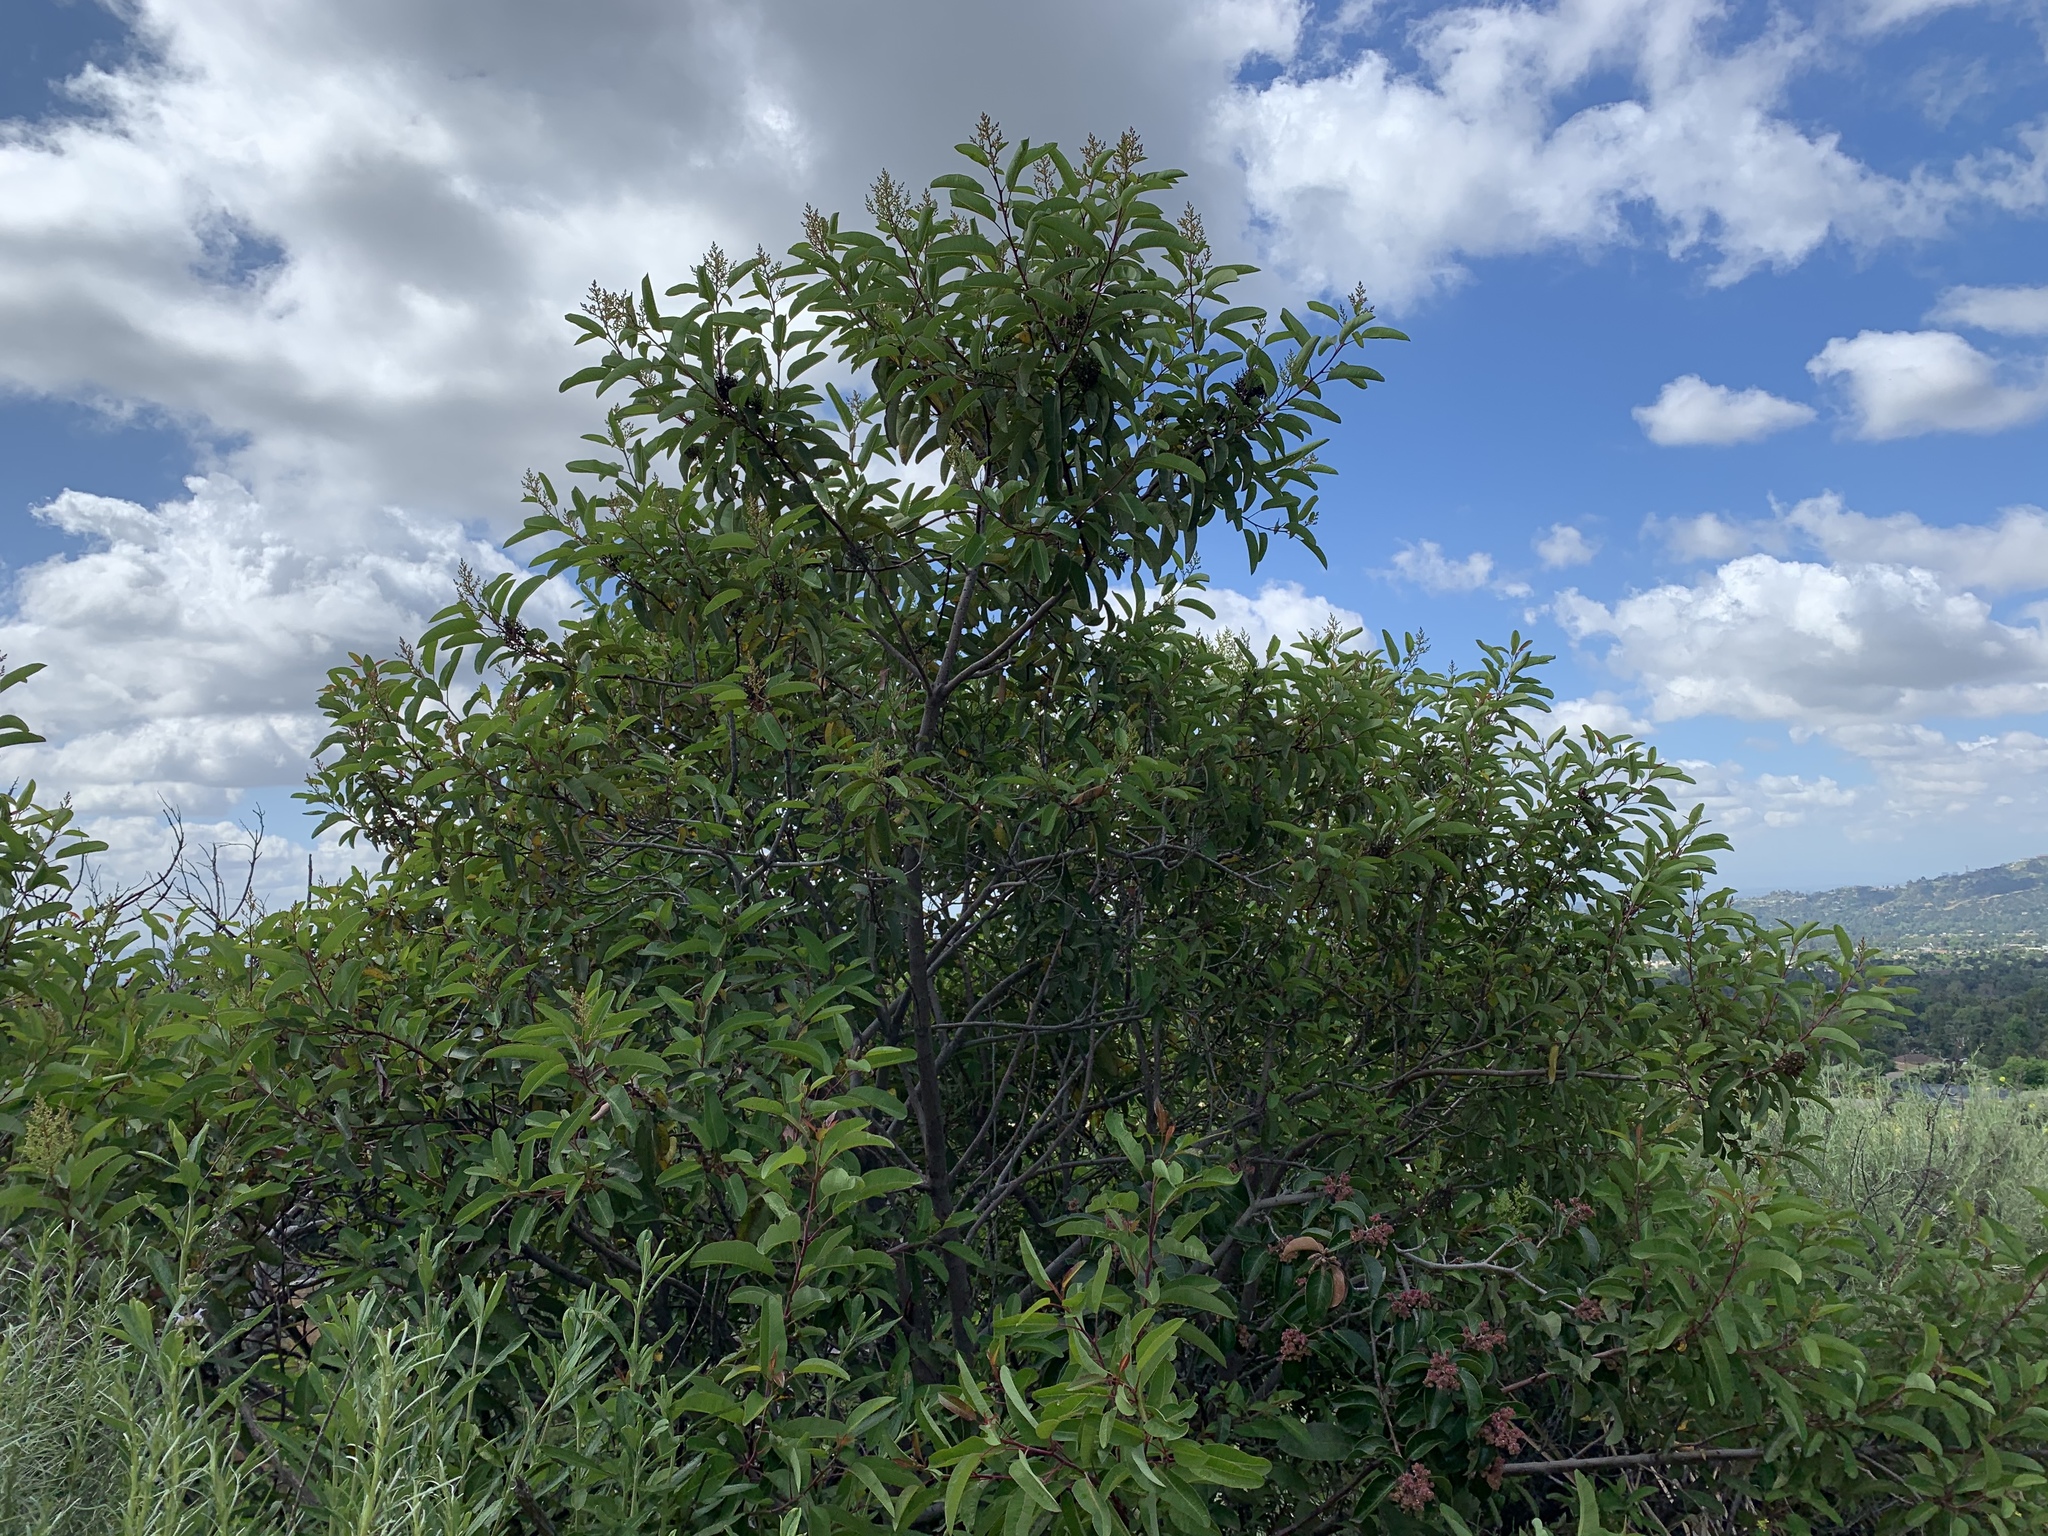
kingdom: Plantae
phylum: Tracheophyta
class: Magnoliopsida
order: Sapindales
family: Anacardiaceae
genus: Rhus
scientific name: Rhus ovata
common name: Sugar sumac
